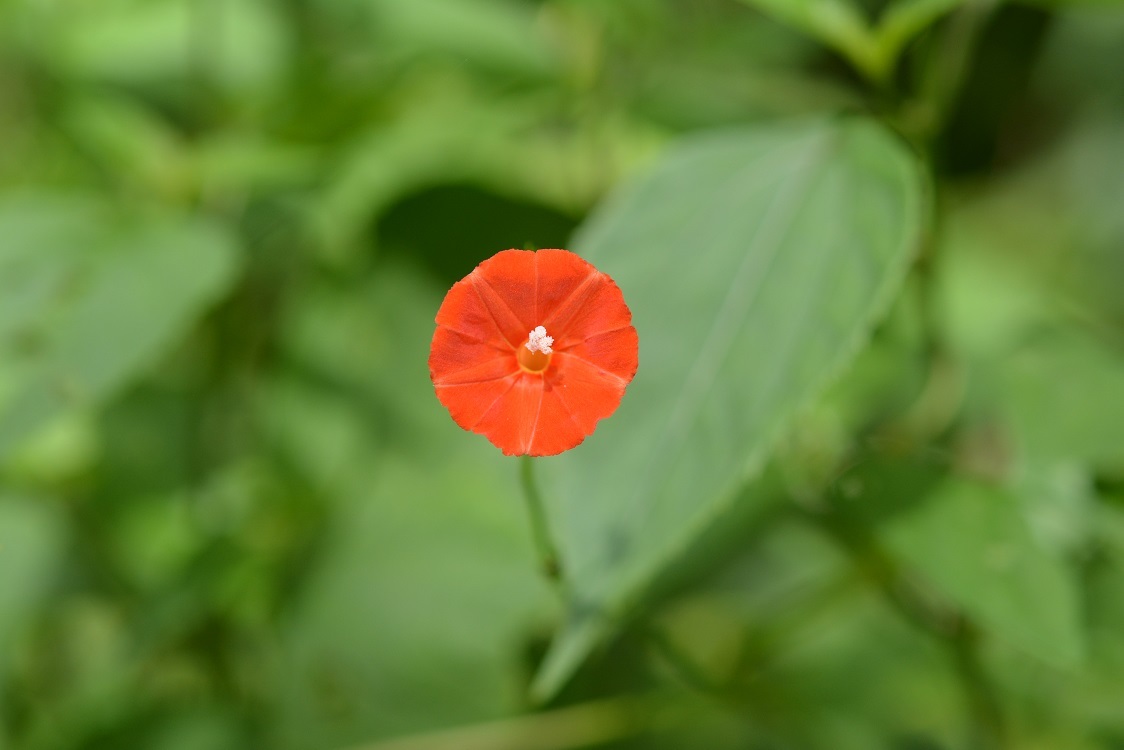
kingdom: Plantae
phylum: Tracheophyta
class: Magnoliopsida
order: Solanales
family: Convolvulaceae
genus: Ipomoea
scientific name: Ipomoea hederifolia
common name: Ivy-leaf morning-glory
